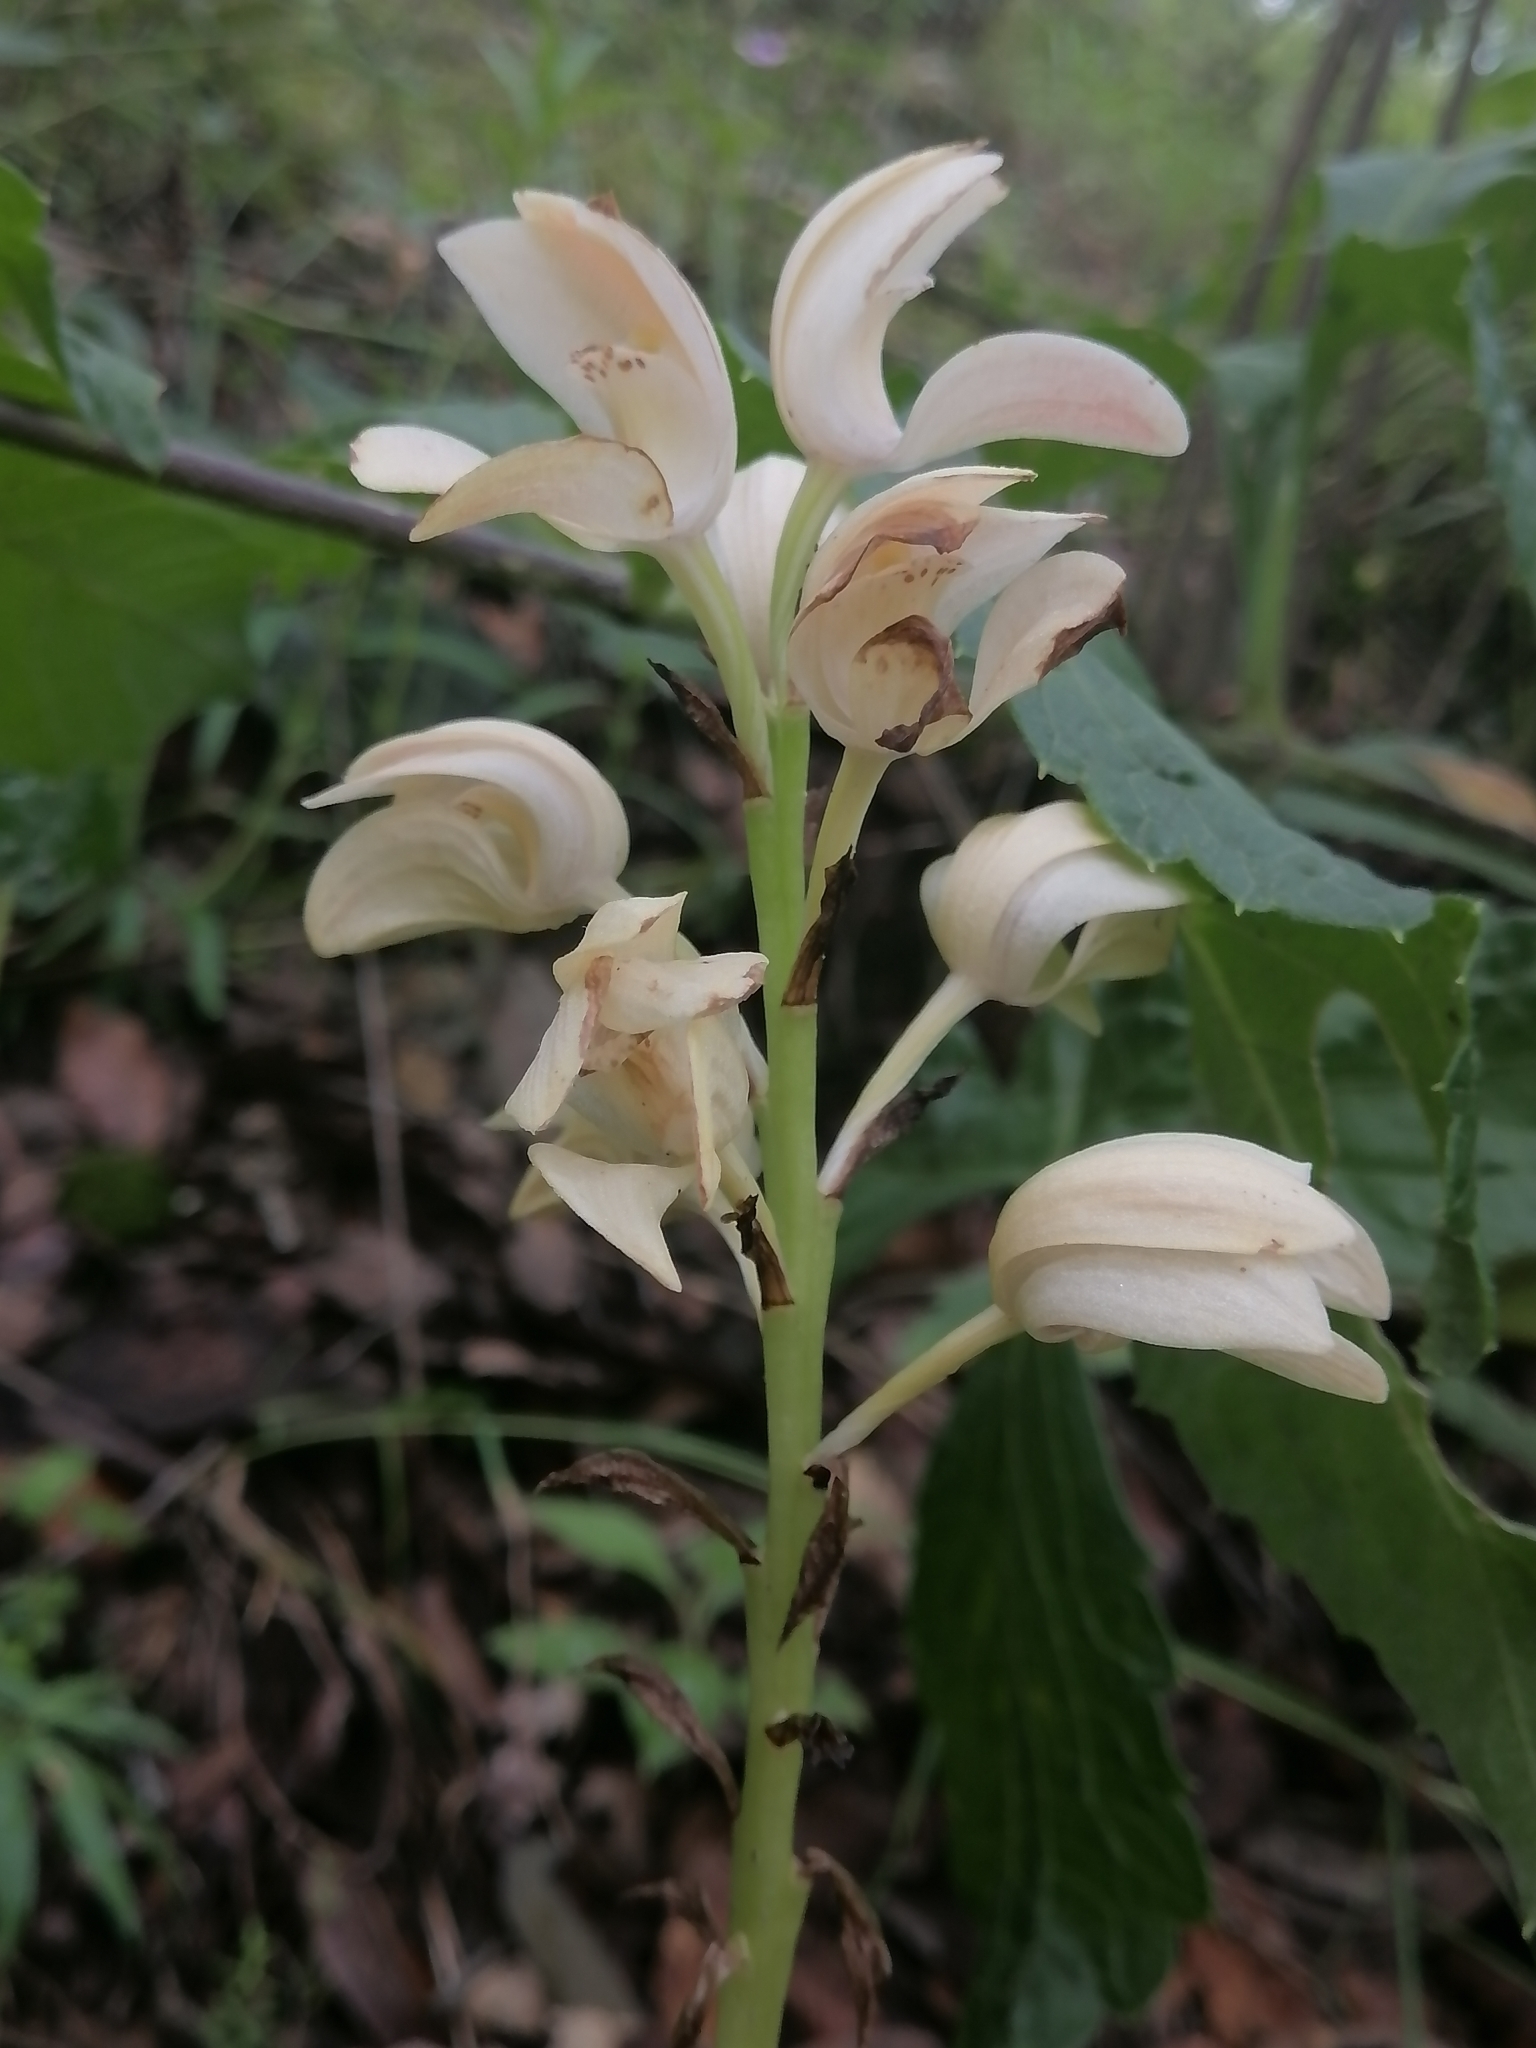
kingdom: Plantae
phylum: Tracheophyta
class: Liliopsida
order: Asparagales
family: Orchidaceae
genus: Govenia
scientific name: Govenia liliacea
